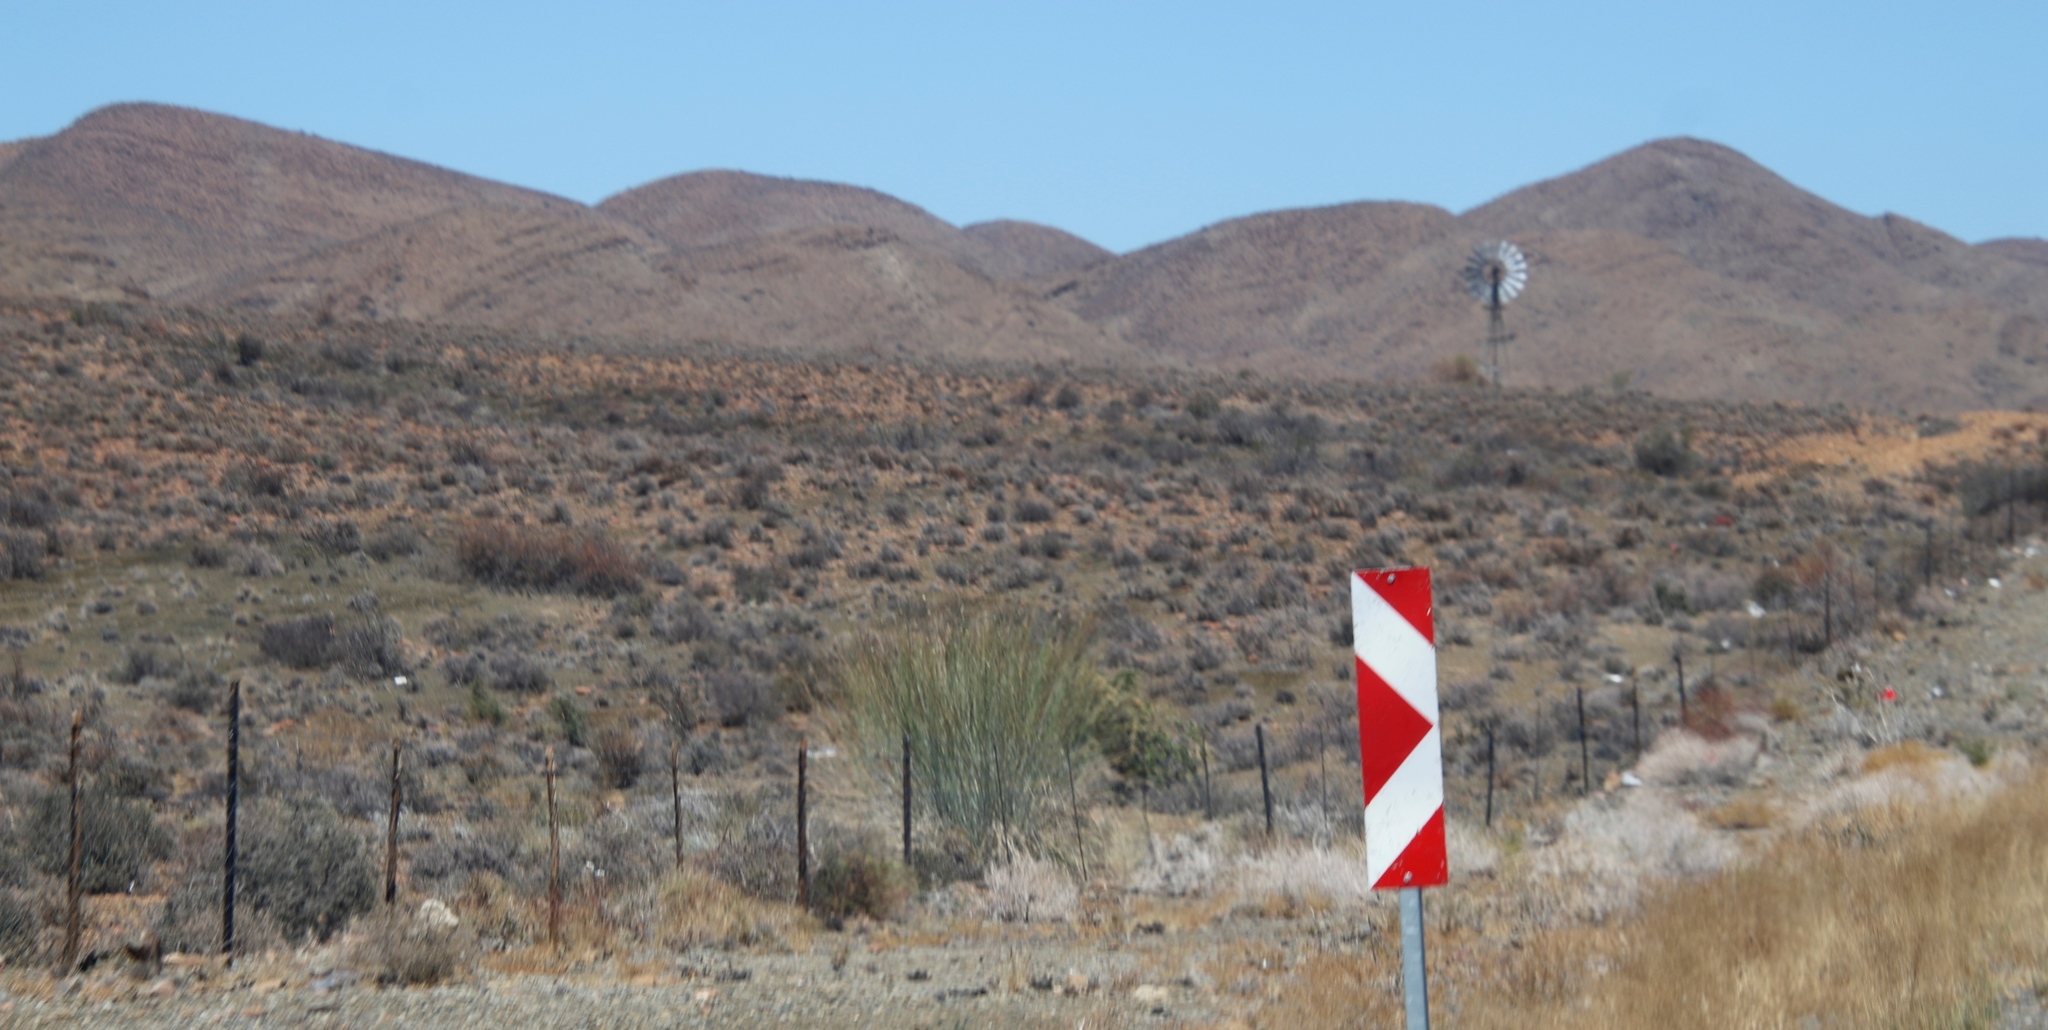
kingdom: Plantae
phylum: Tracheophyta
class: Magnoliopsida
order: Gentianales
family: Apocynaceae
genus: Gomphocarpus
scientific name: Gomphocarpus filiformis
